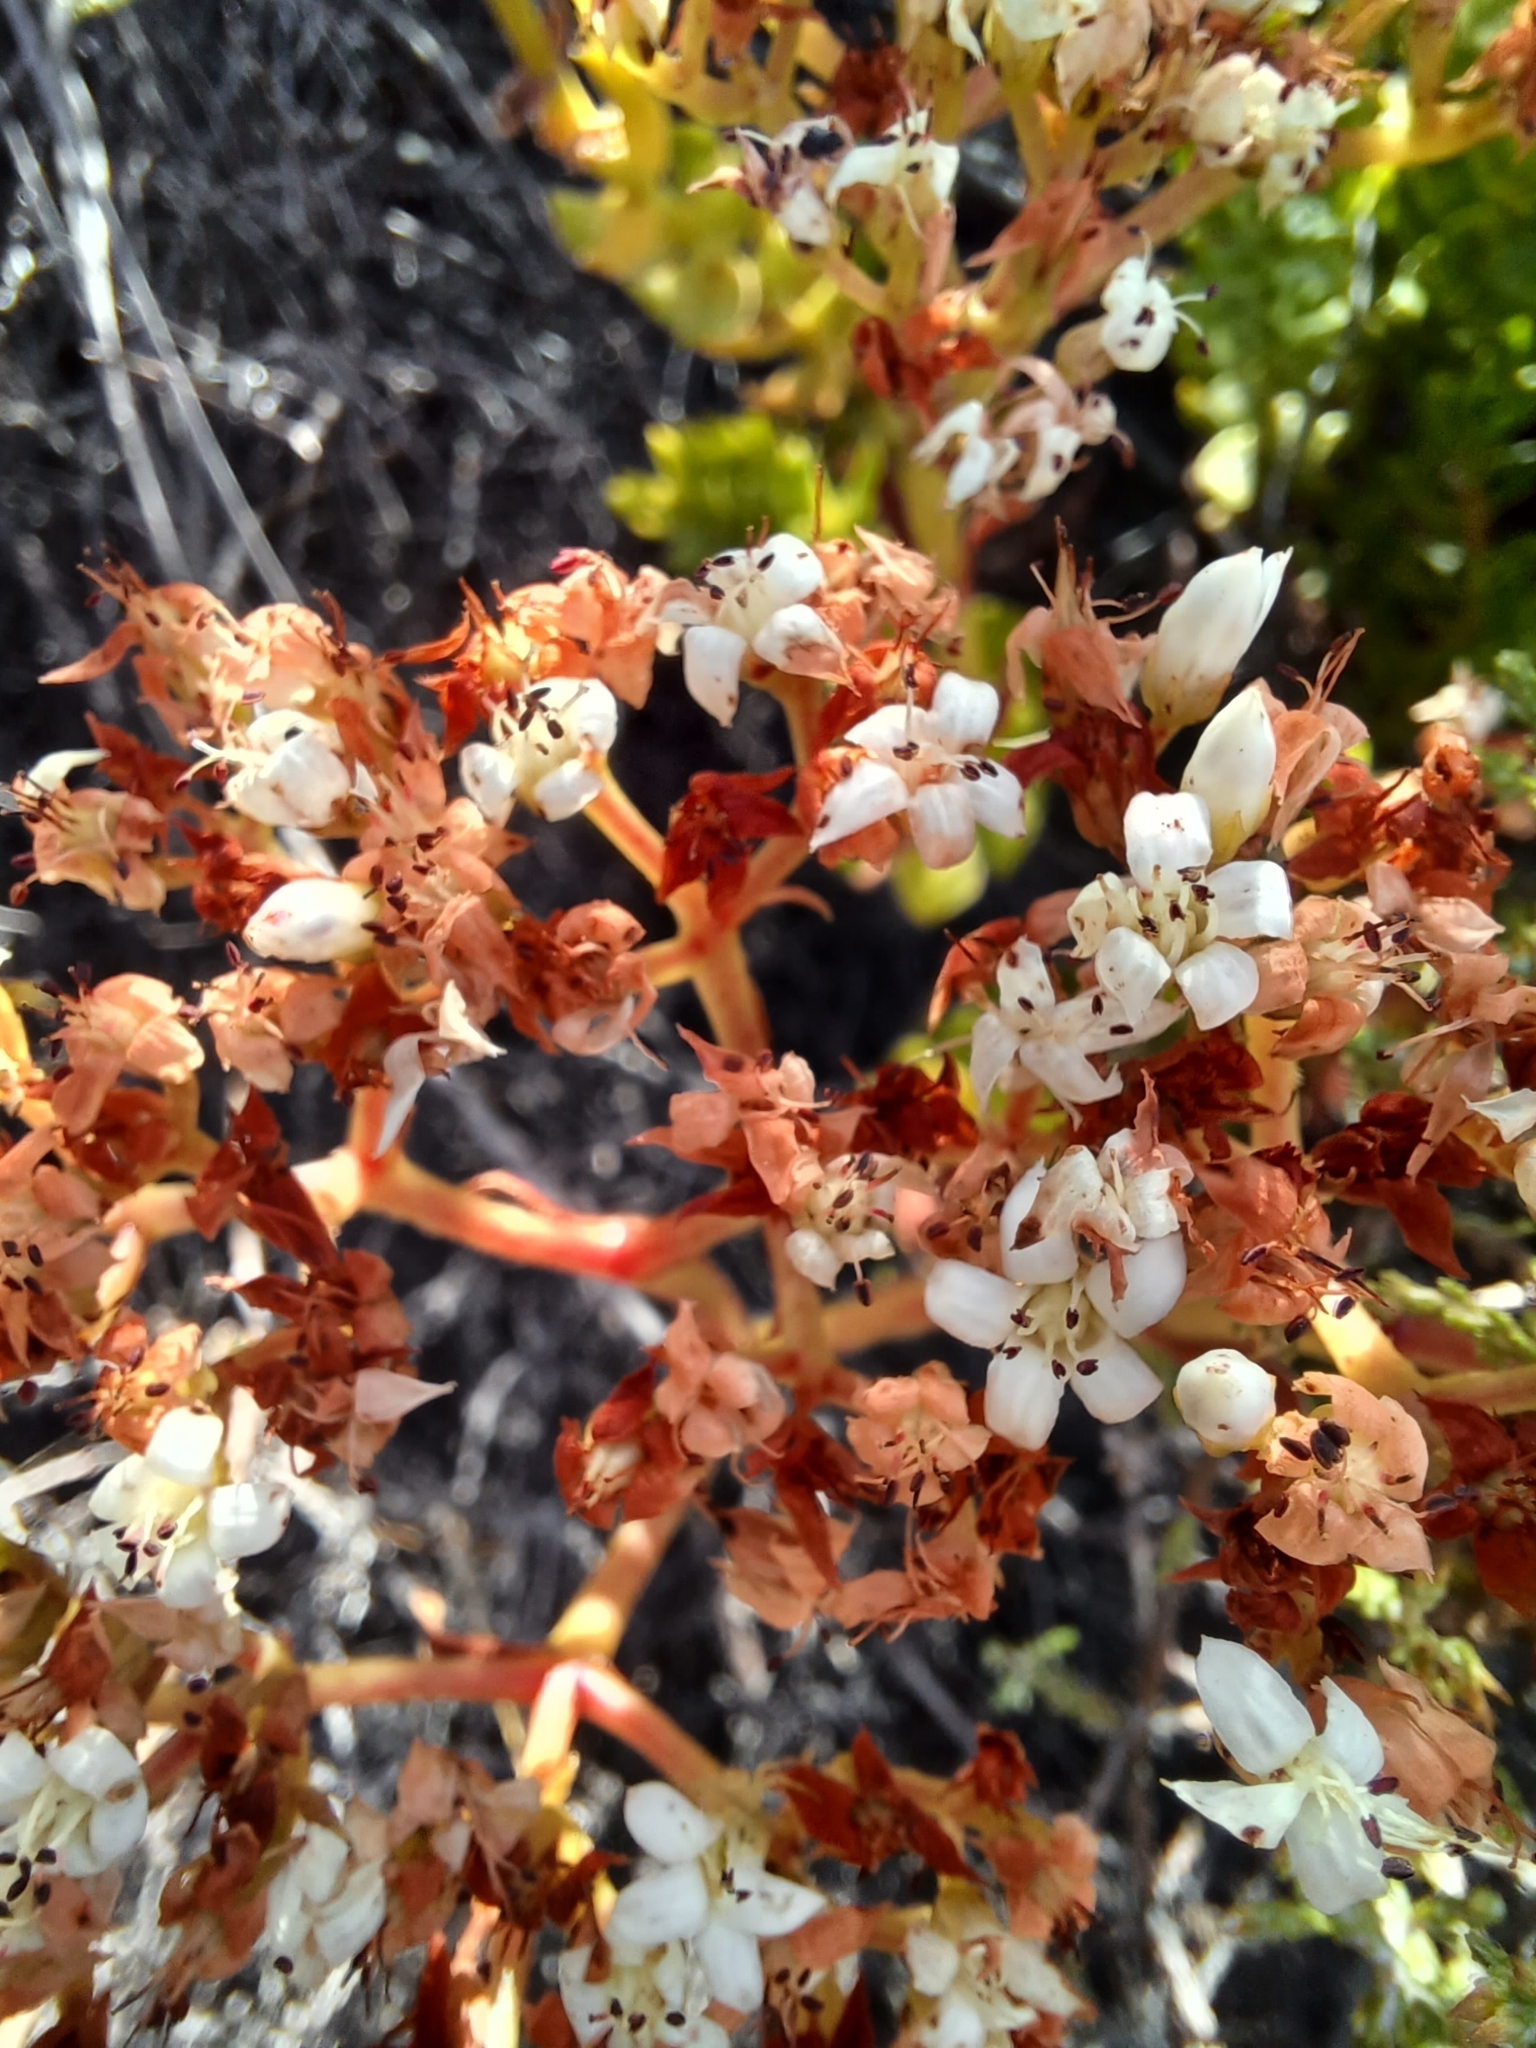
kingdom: Plantae
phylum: Tracheophyta
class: Magnoliopsida
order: Saxifragales
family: Crassulaceae
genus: Crassula
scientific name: Crassula undulata
